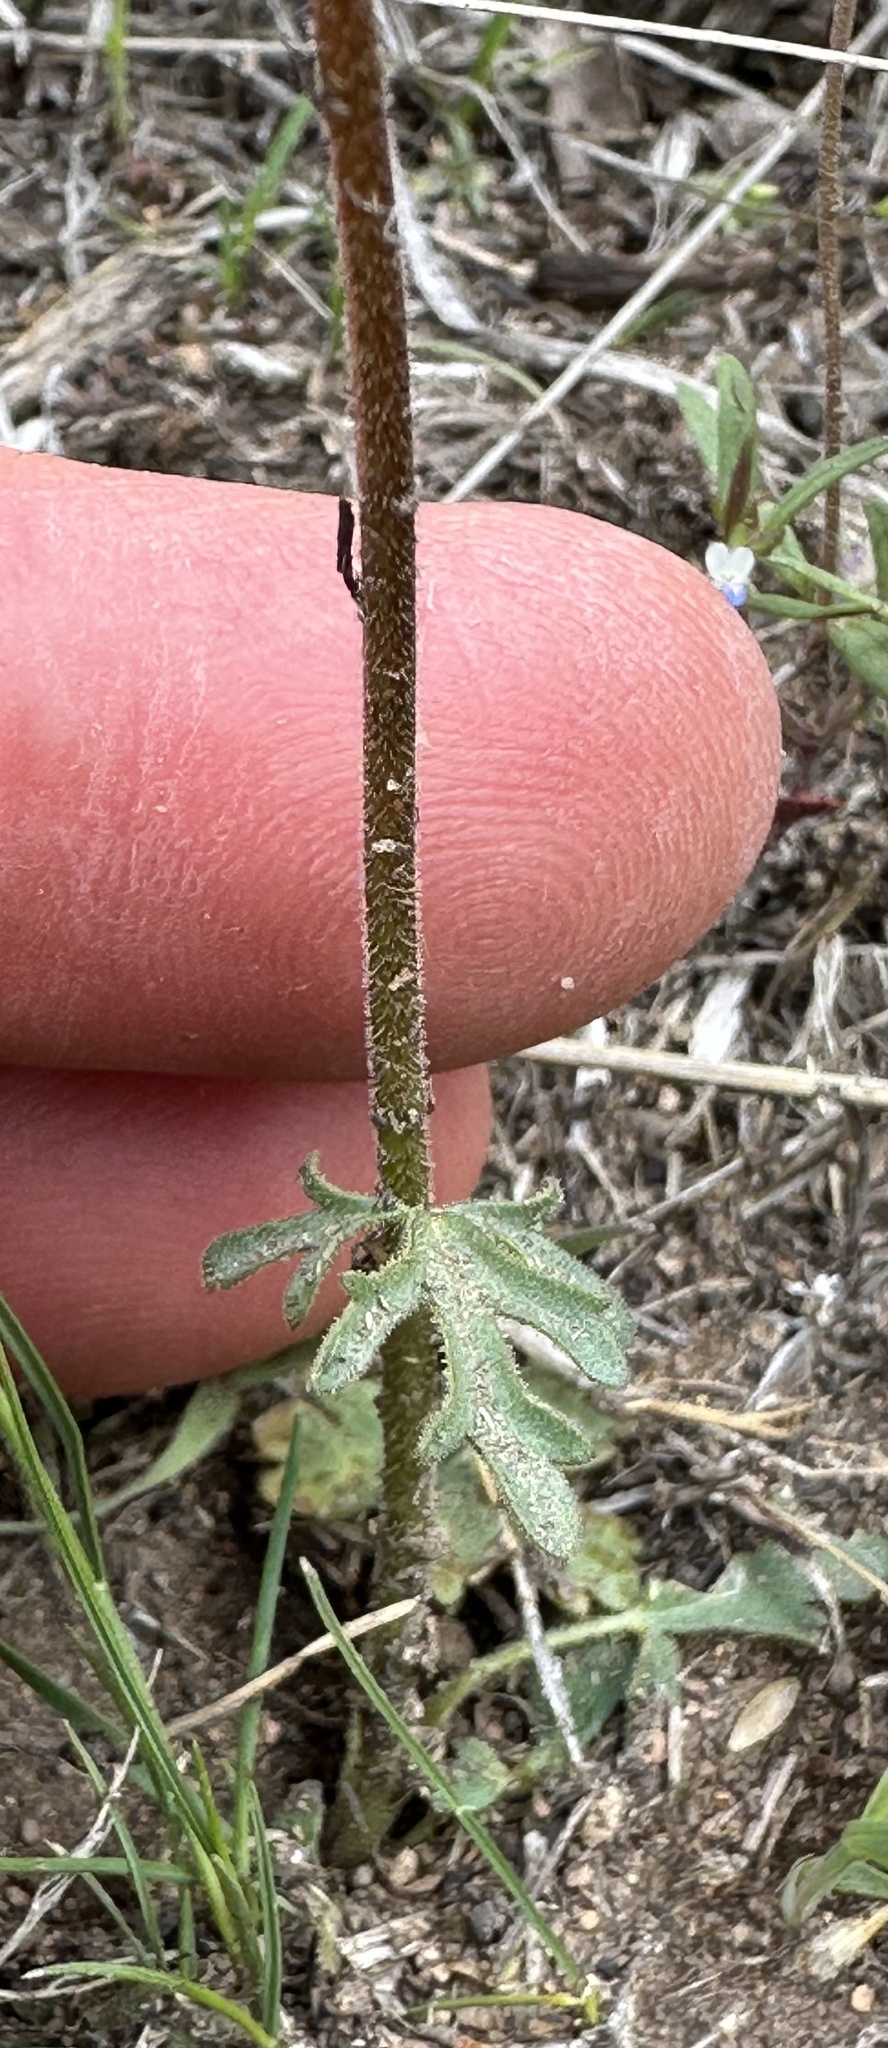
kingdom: Plantae
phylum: Tracheophyta
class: Magnoliopsida
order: Saxifragales
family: Saxifragaceae
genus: Lithophragma
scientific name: Lithophragma tenella
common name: Slender fringe-cup
